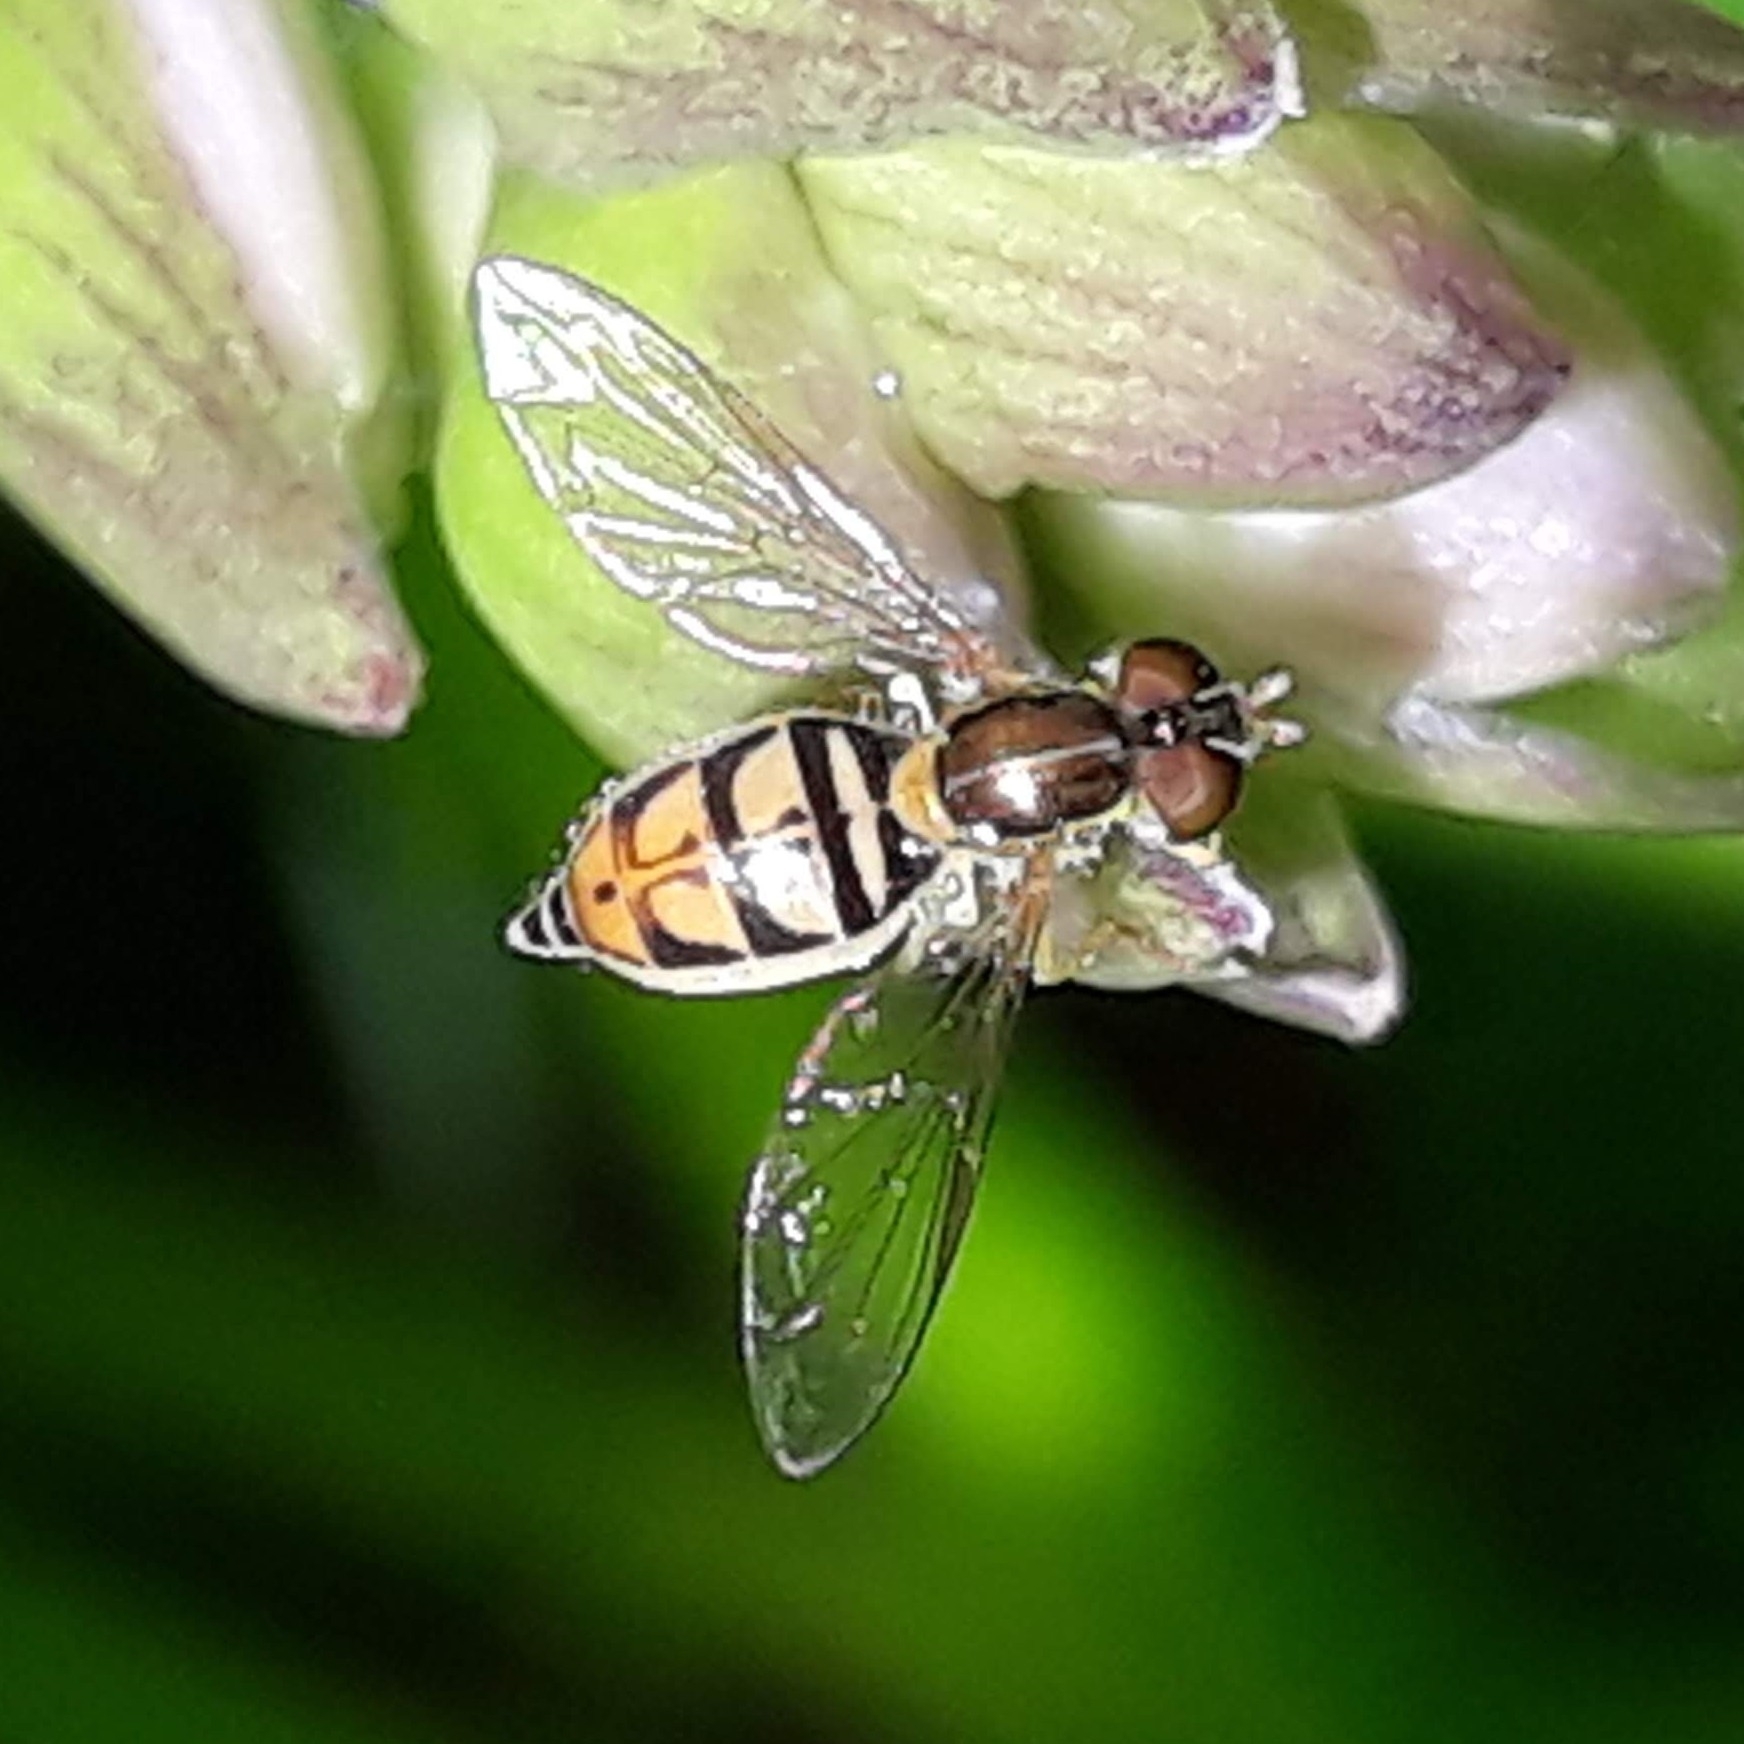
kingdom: Animalia
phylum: Arthropoda
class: Insecta
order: Diptera
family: Syrphidae
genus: Toxomerus
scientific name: Toxomerus marginatus
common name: Syrphid fly
